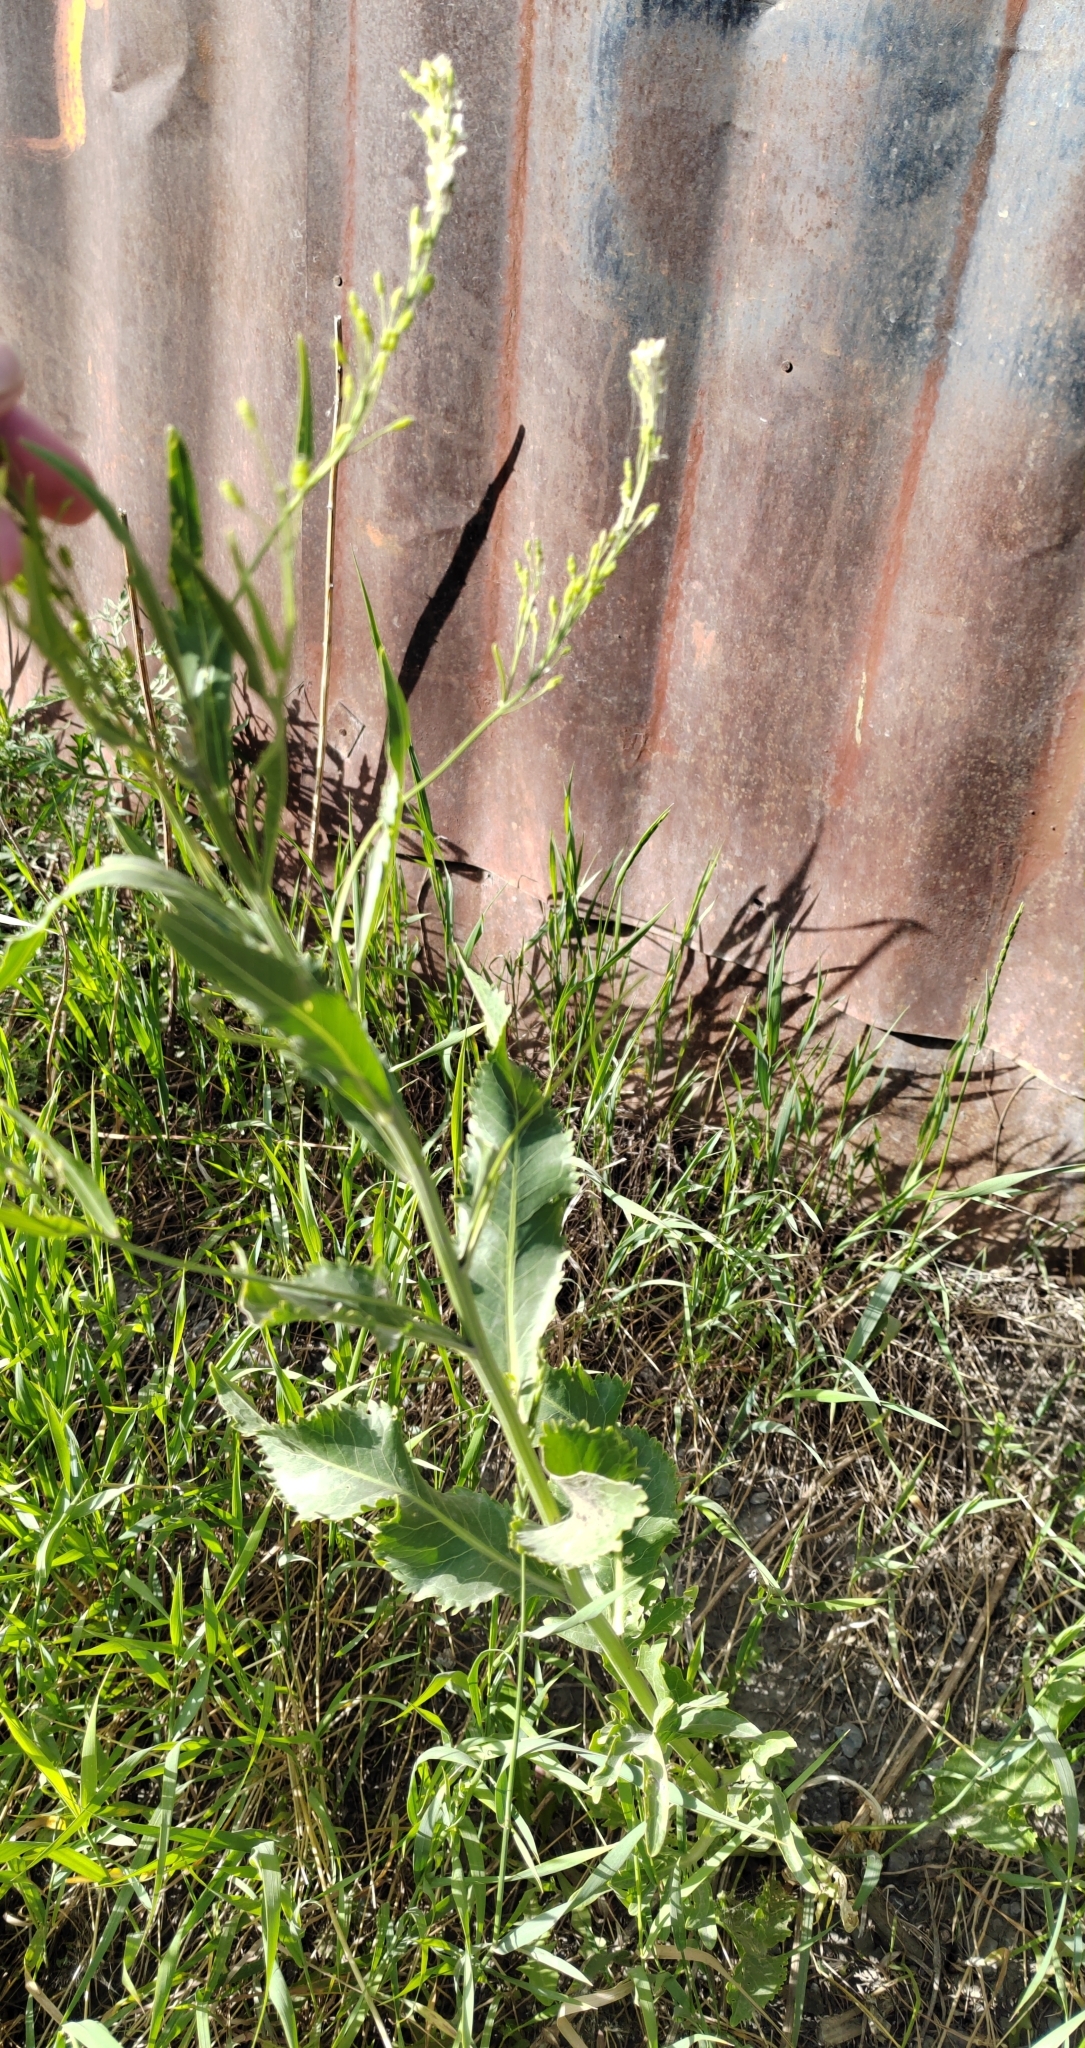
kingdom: Plantae
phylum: Tracheophyta
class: Magnoliopsida
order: Brassicales
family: Brassicaceae
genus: Armoracia
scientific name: Armoracia rusticana
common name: Horseradish
